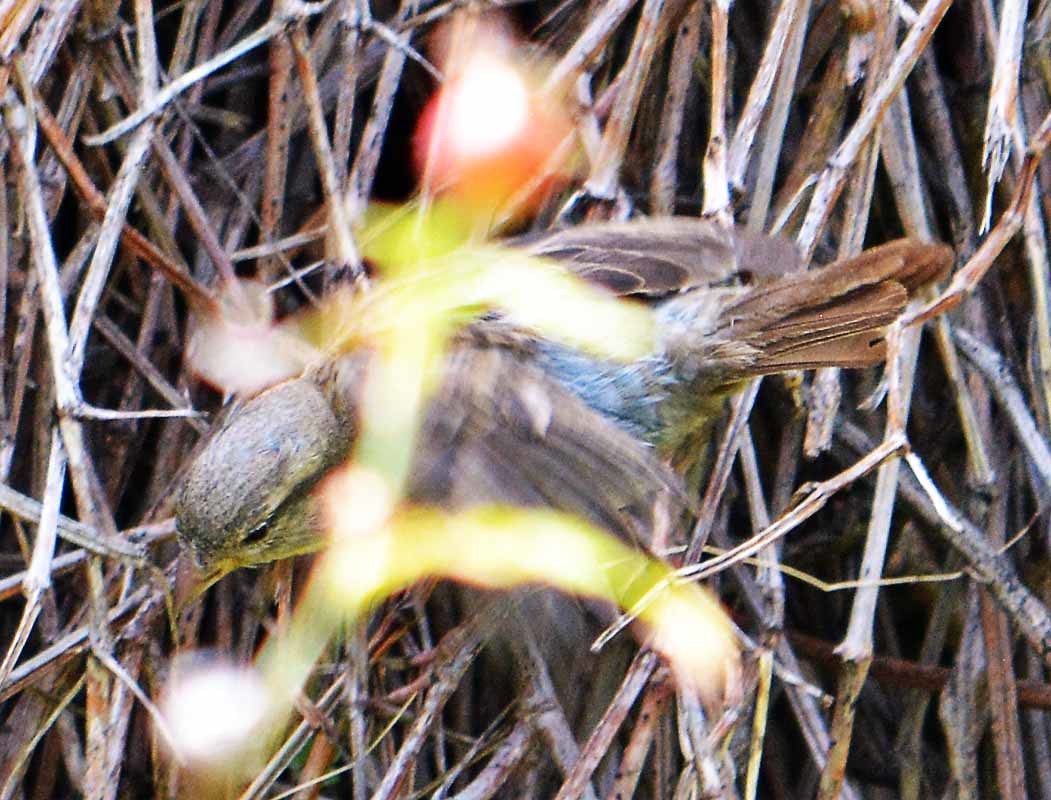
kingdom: Animalia
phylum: Chordata
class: Aves
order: Passeriformes
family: Passeridae
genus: Passer
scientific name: Passer domesticus
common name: House sparrow
